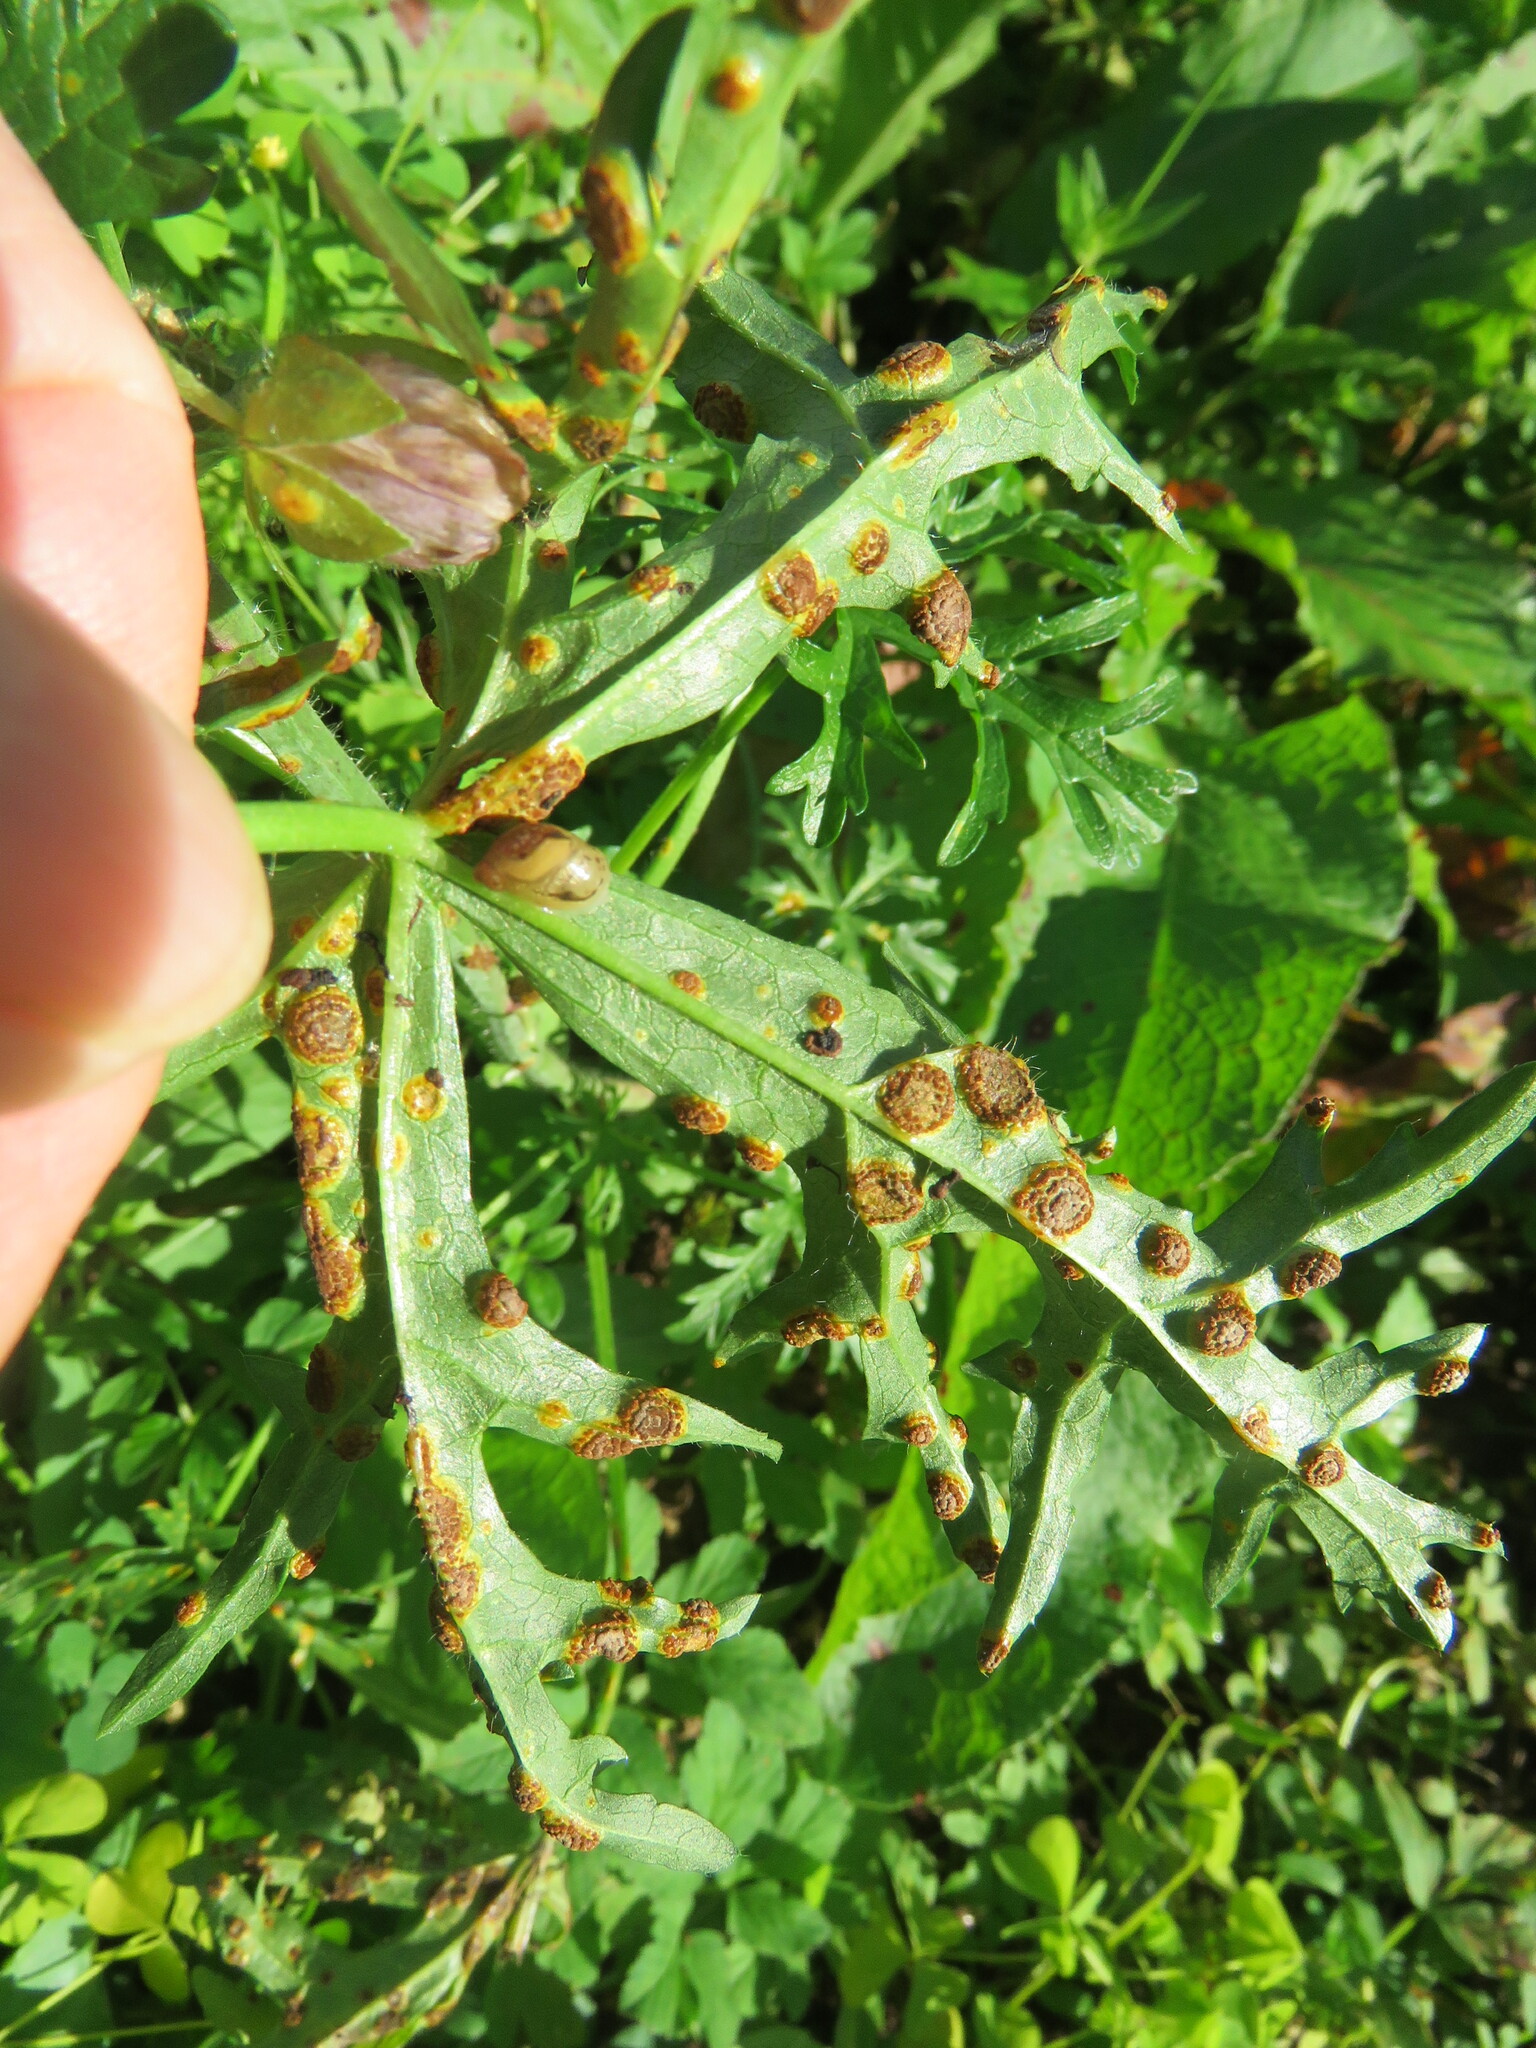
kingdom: Fungi
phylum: Basidiomycota
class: Pucciniomycetes
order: Pucciniales
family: Pucciniaceae
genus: Puccinia
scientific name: Puccinia malvacearum
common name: Hollyhock rust
